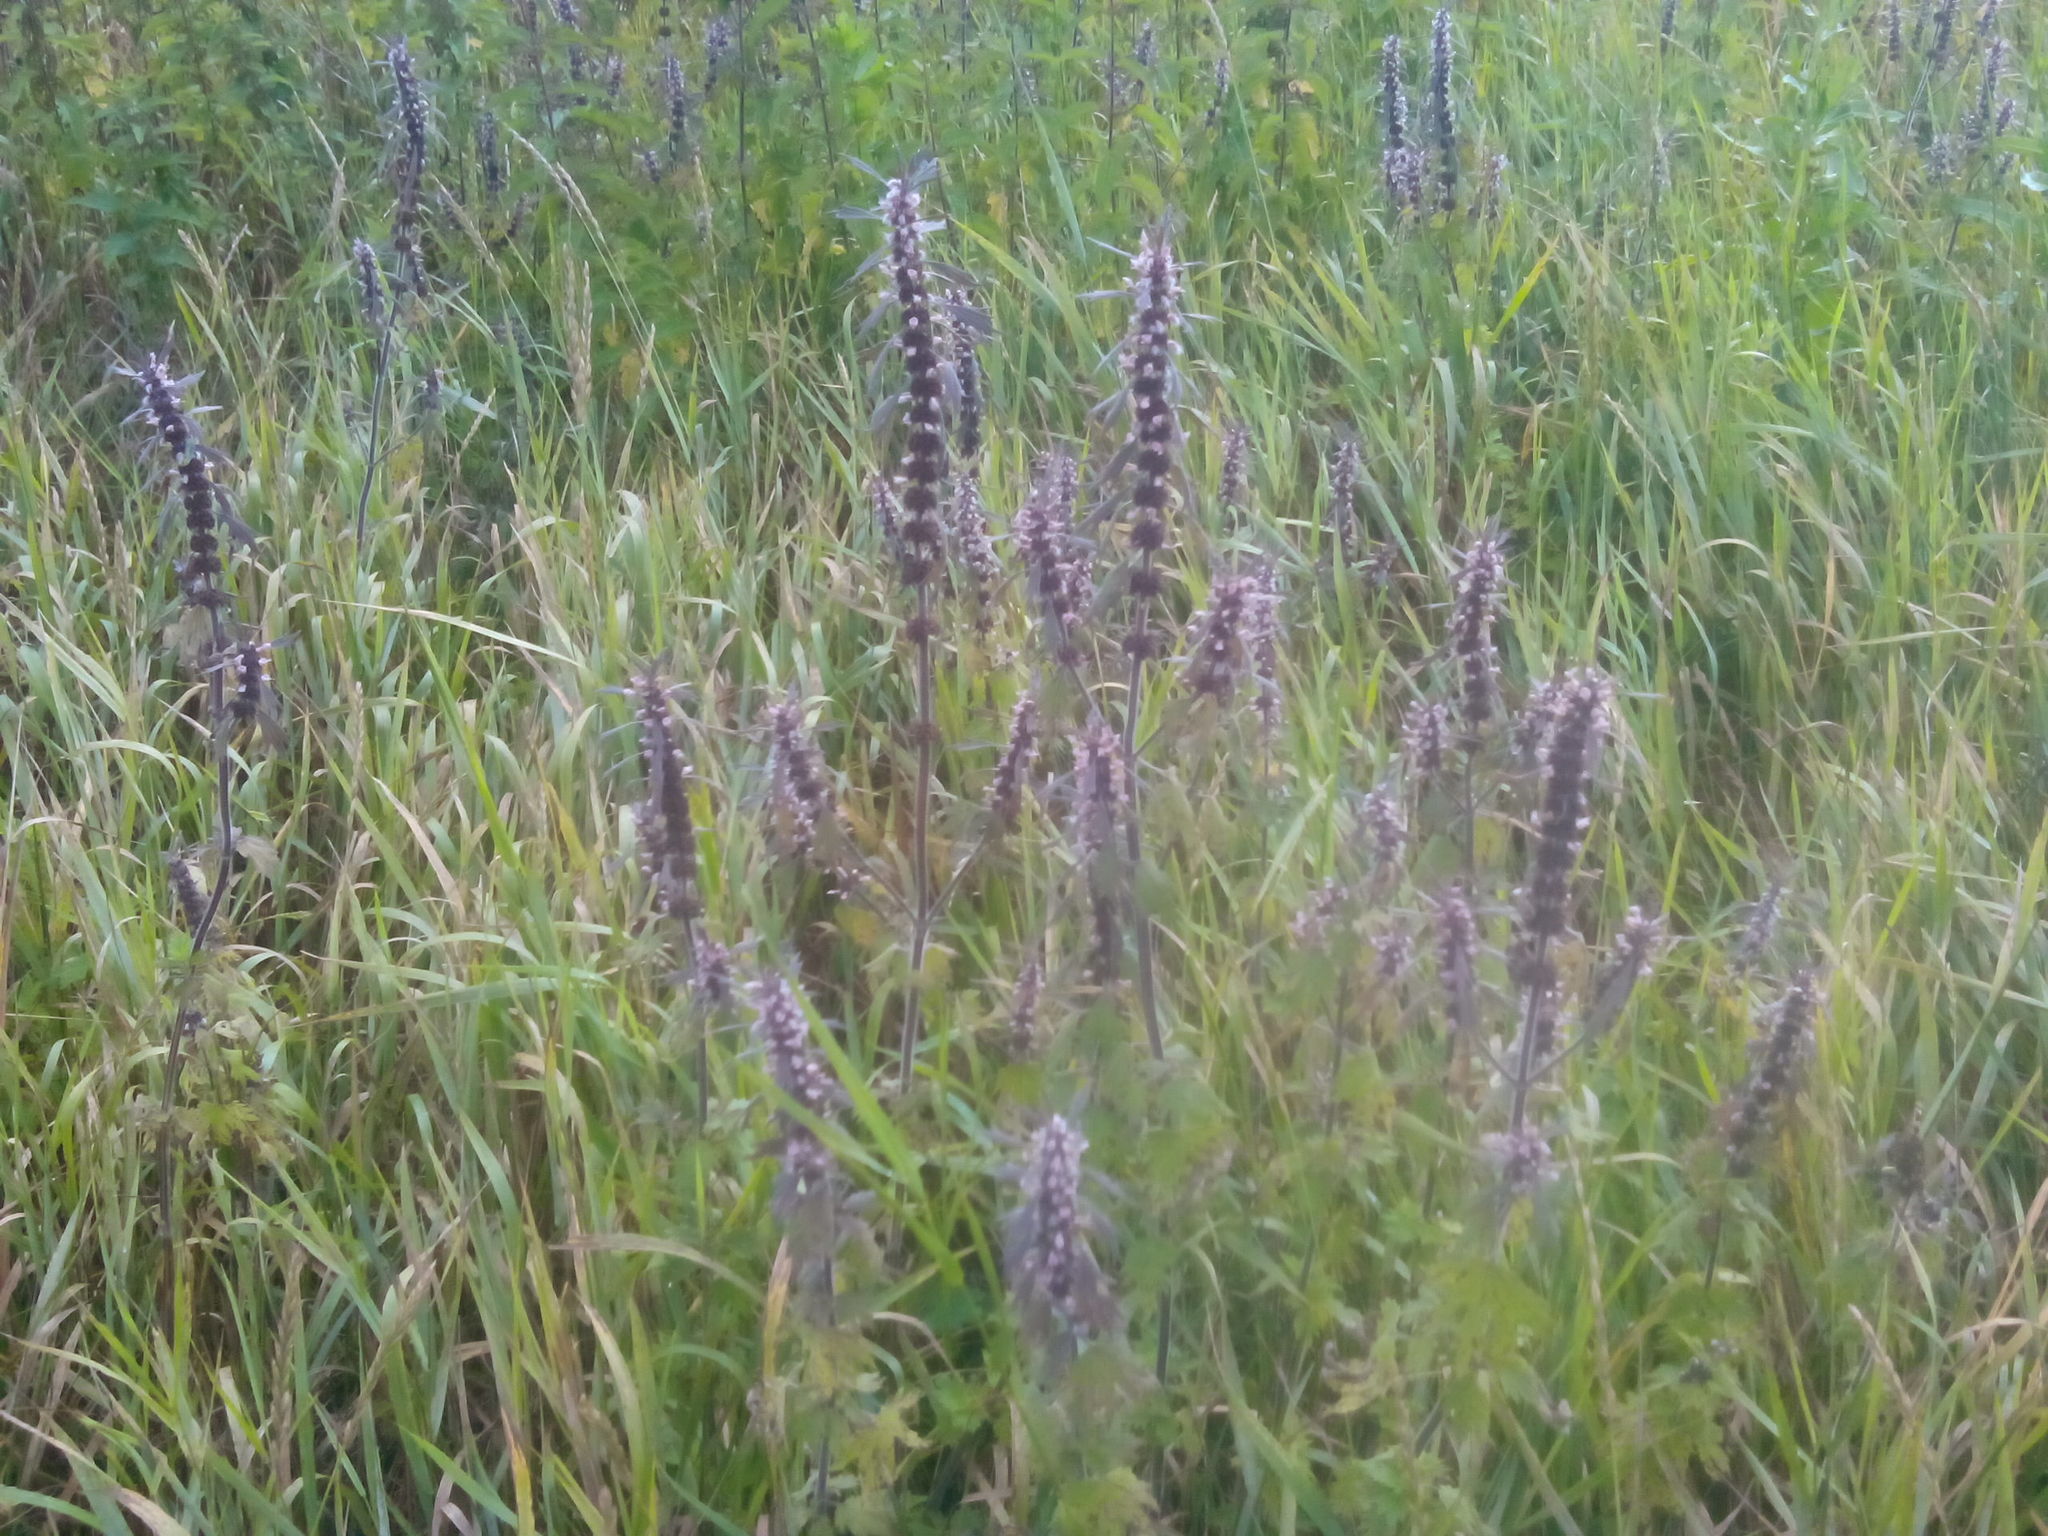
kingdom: Plantae
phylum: Tracheophyta
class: Magnoliopsida
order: Lamiales
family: Lamiaceae
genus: Leonurus
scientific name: Leonurus quinquelobatus
